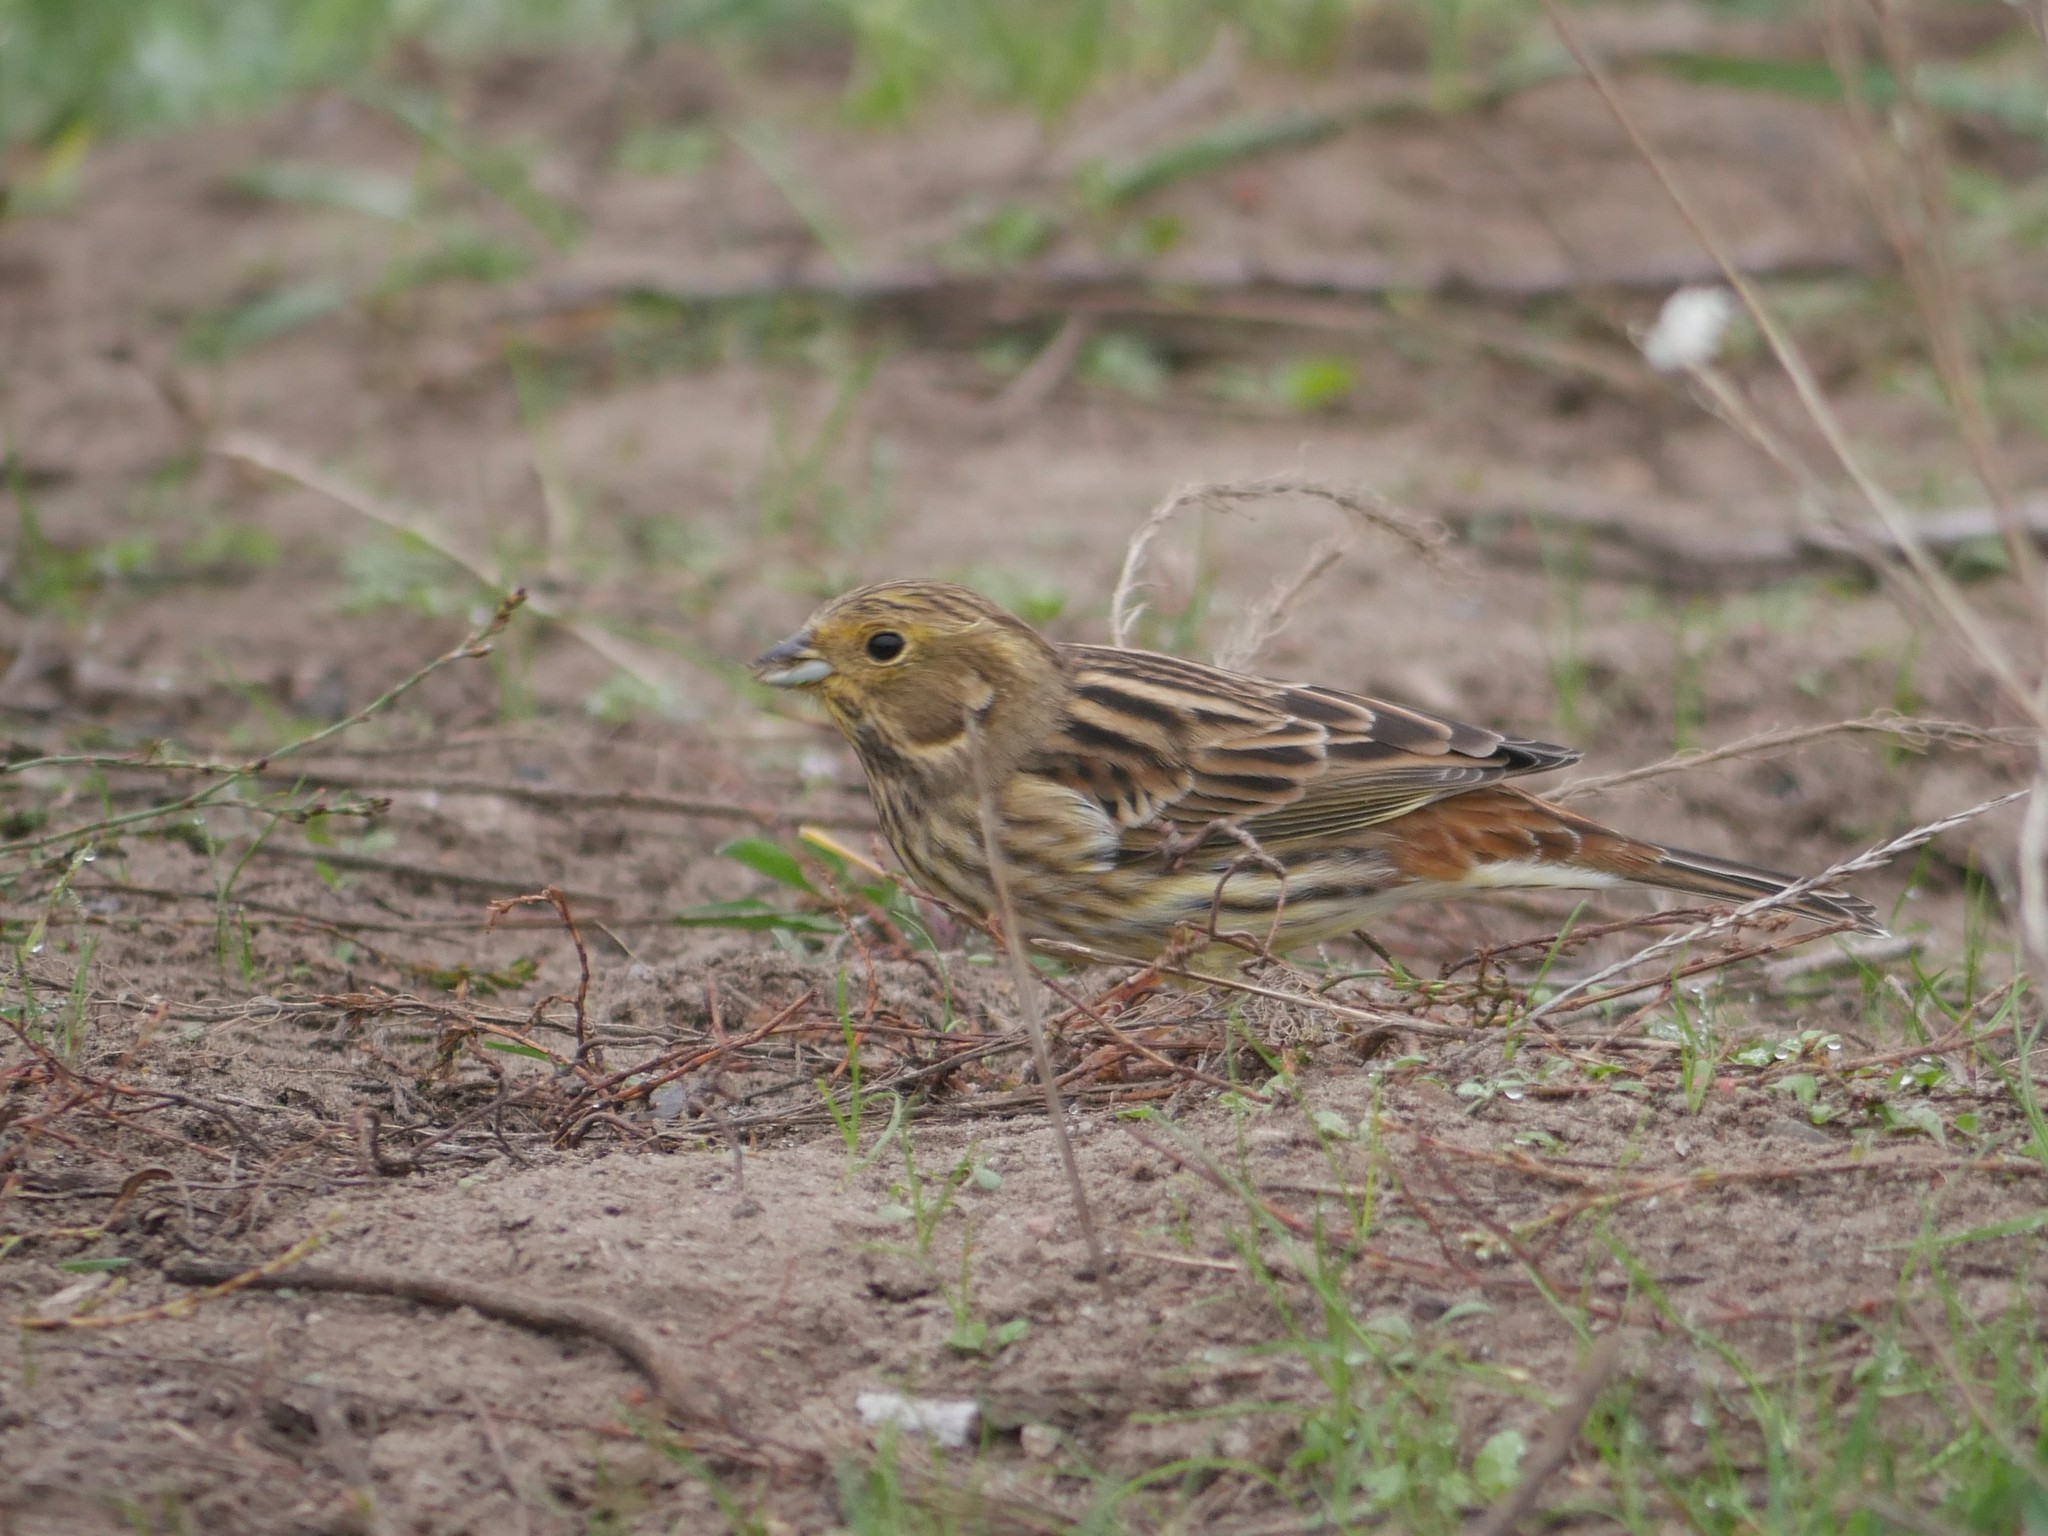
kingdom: Animalia
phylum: Chordata
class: Aves
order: Passeriformes
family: Emberizidae
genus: Emberiza
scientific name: Emberiza citrinella
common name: Yellowhammer
